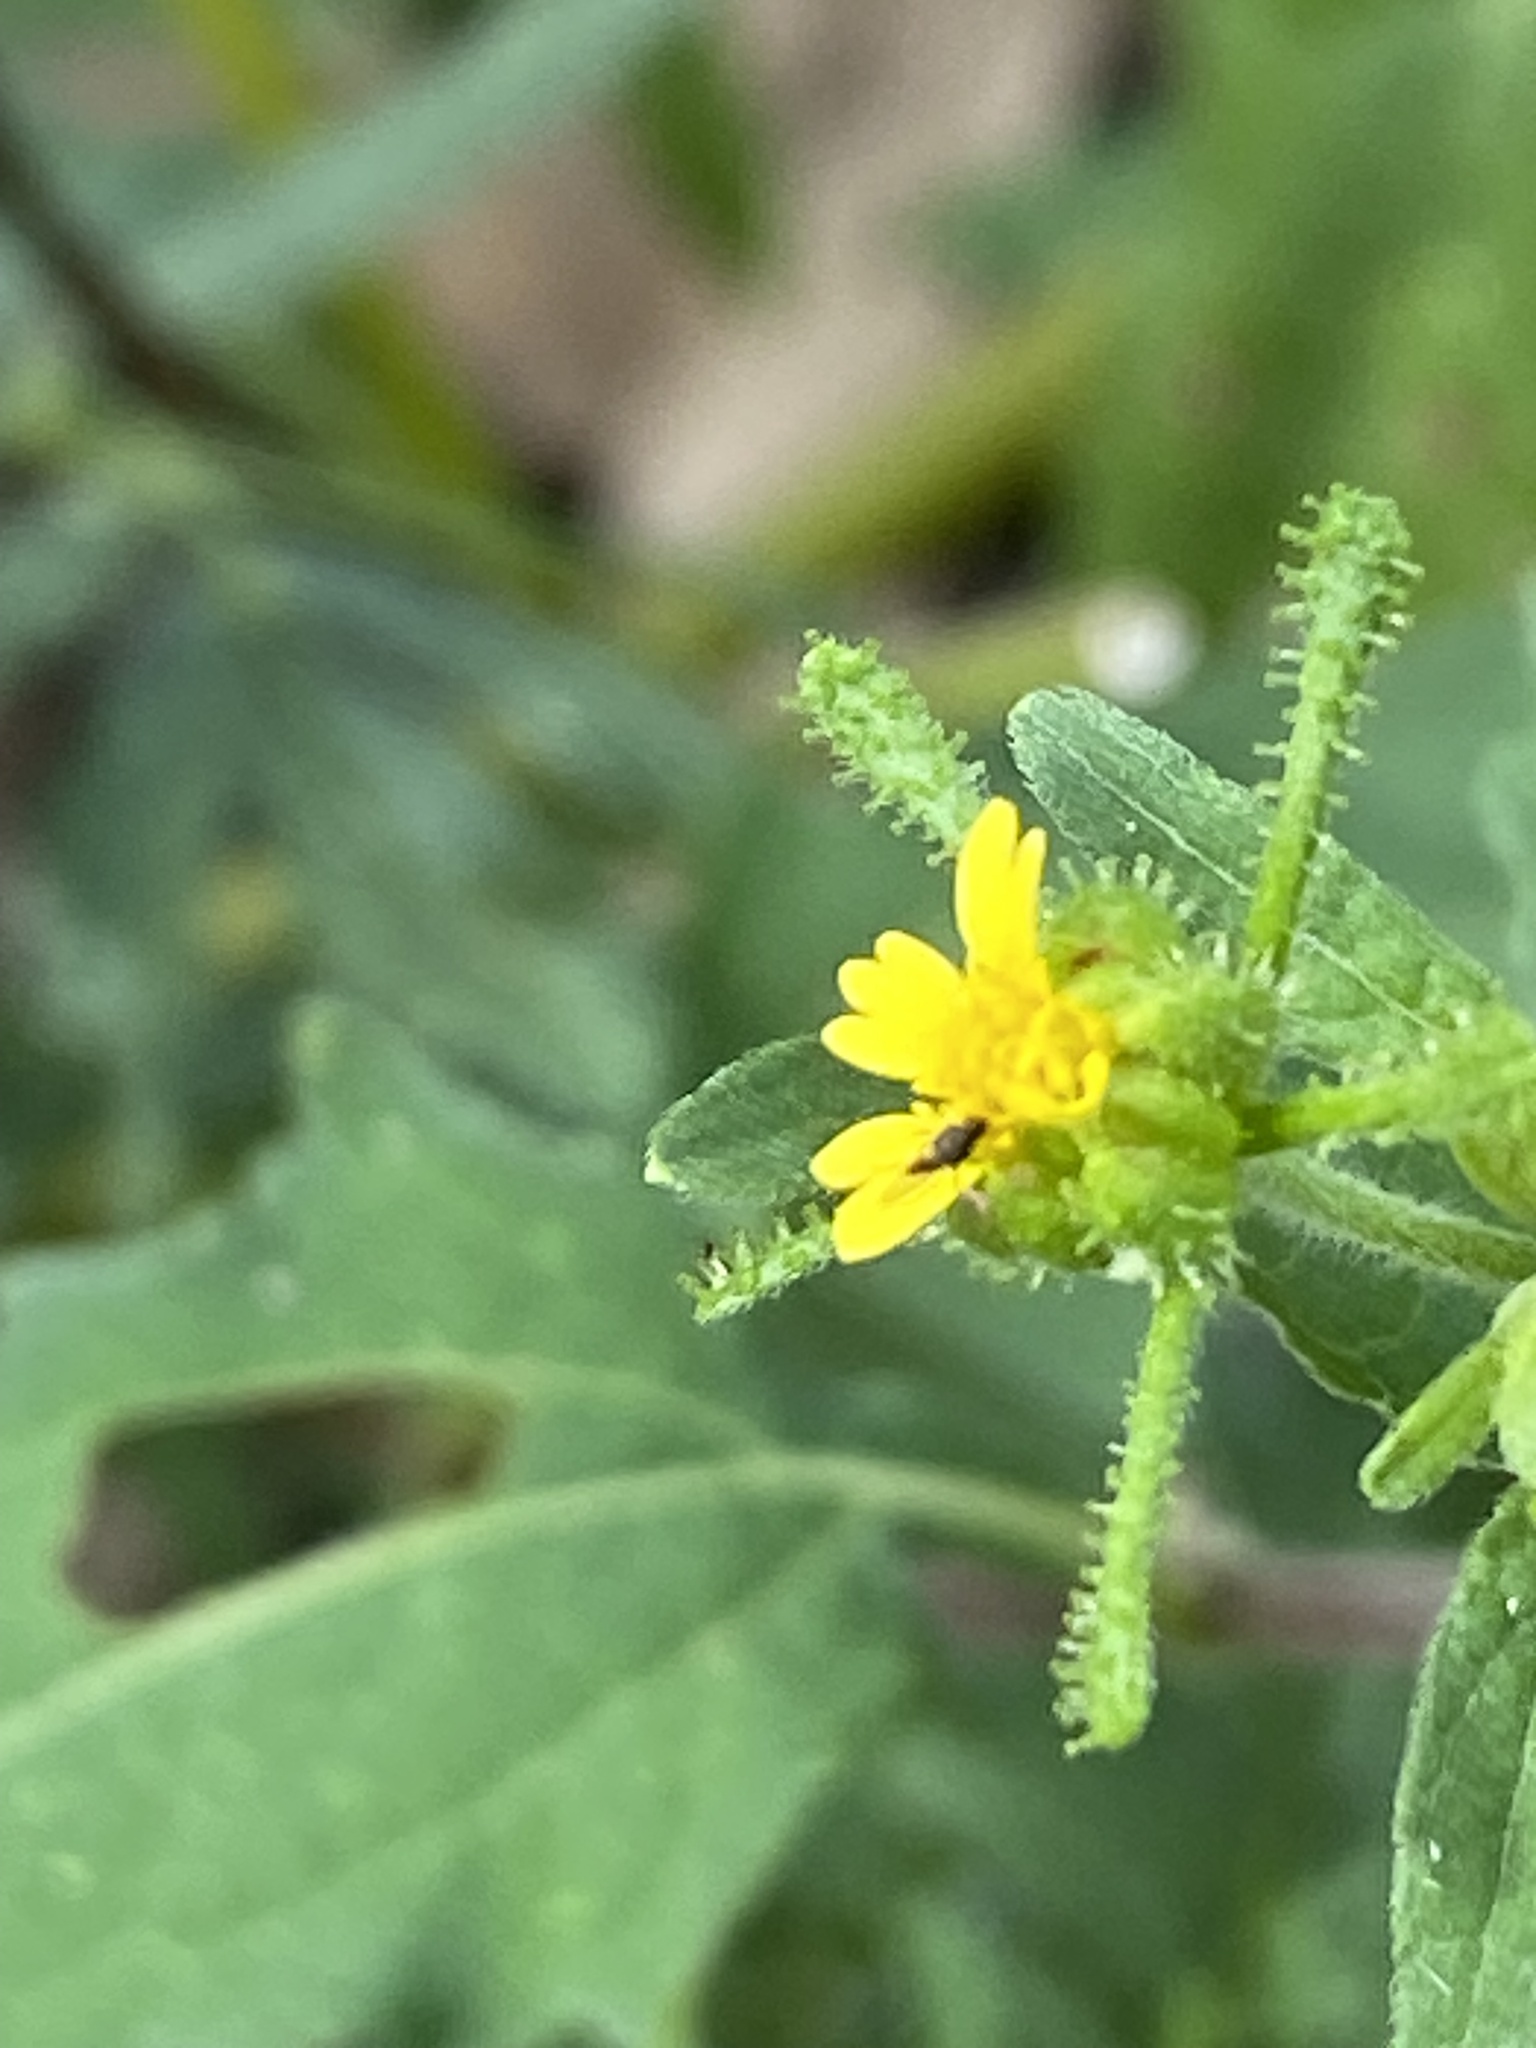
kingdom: Plantae
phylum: Tracheophyta
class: Magnoliopsida
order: Asterales
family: Asteraceae
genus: Sigesbeckia
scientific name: Sigesbeckia orientalis
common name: Eastern st paul's-wort
